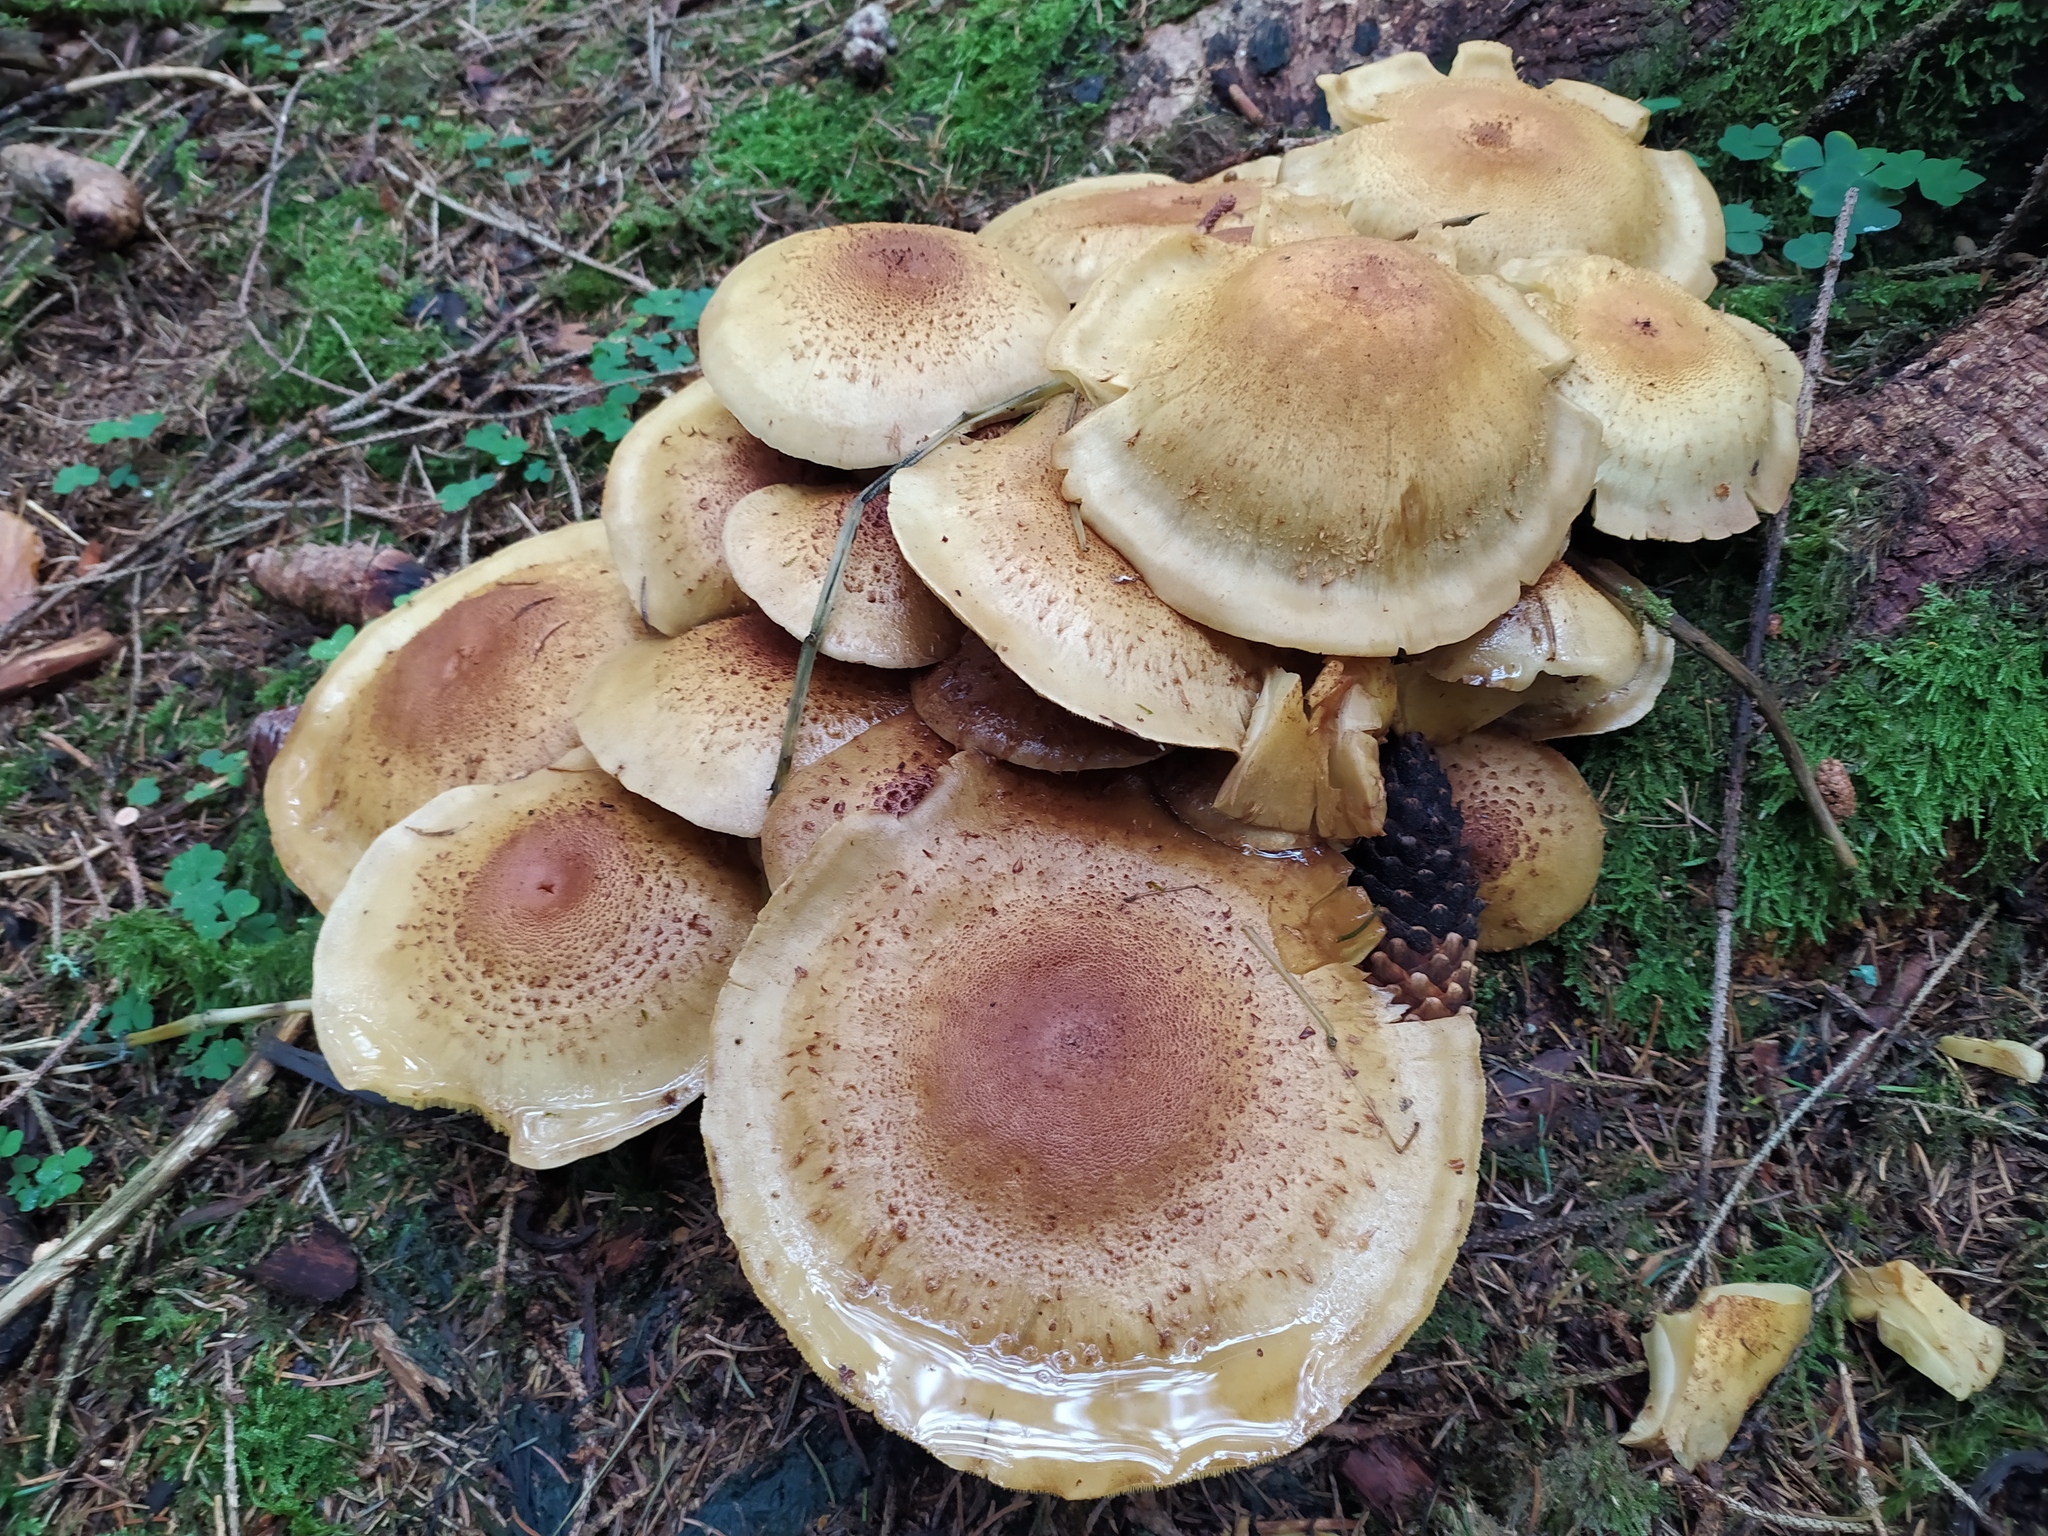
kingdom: Fungi
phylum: Basidiomycota
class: Agaricomycetes
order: Agaricales
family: Strophariaceae
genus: Pholiota
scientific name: Pholiota squarrosa
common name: Shaggy pholiota
